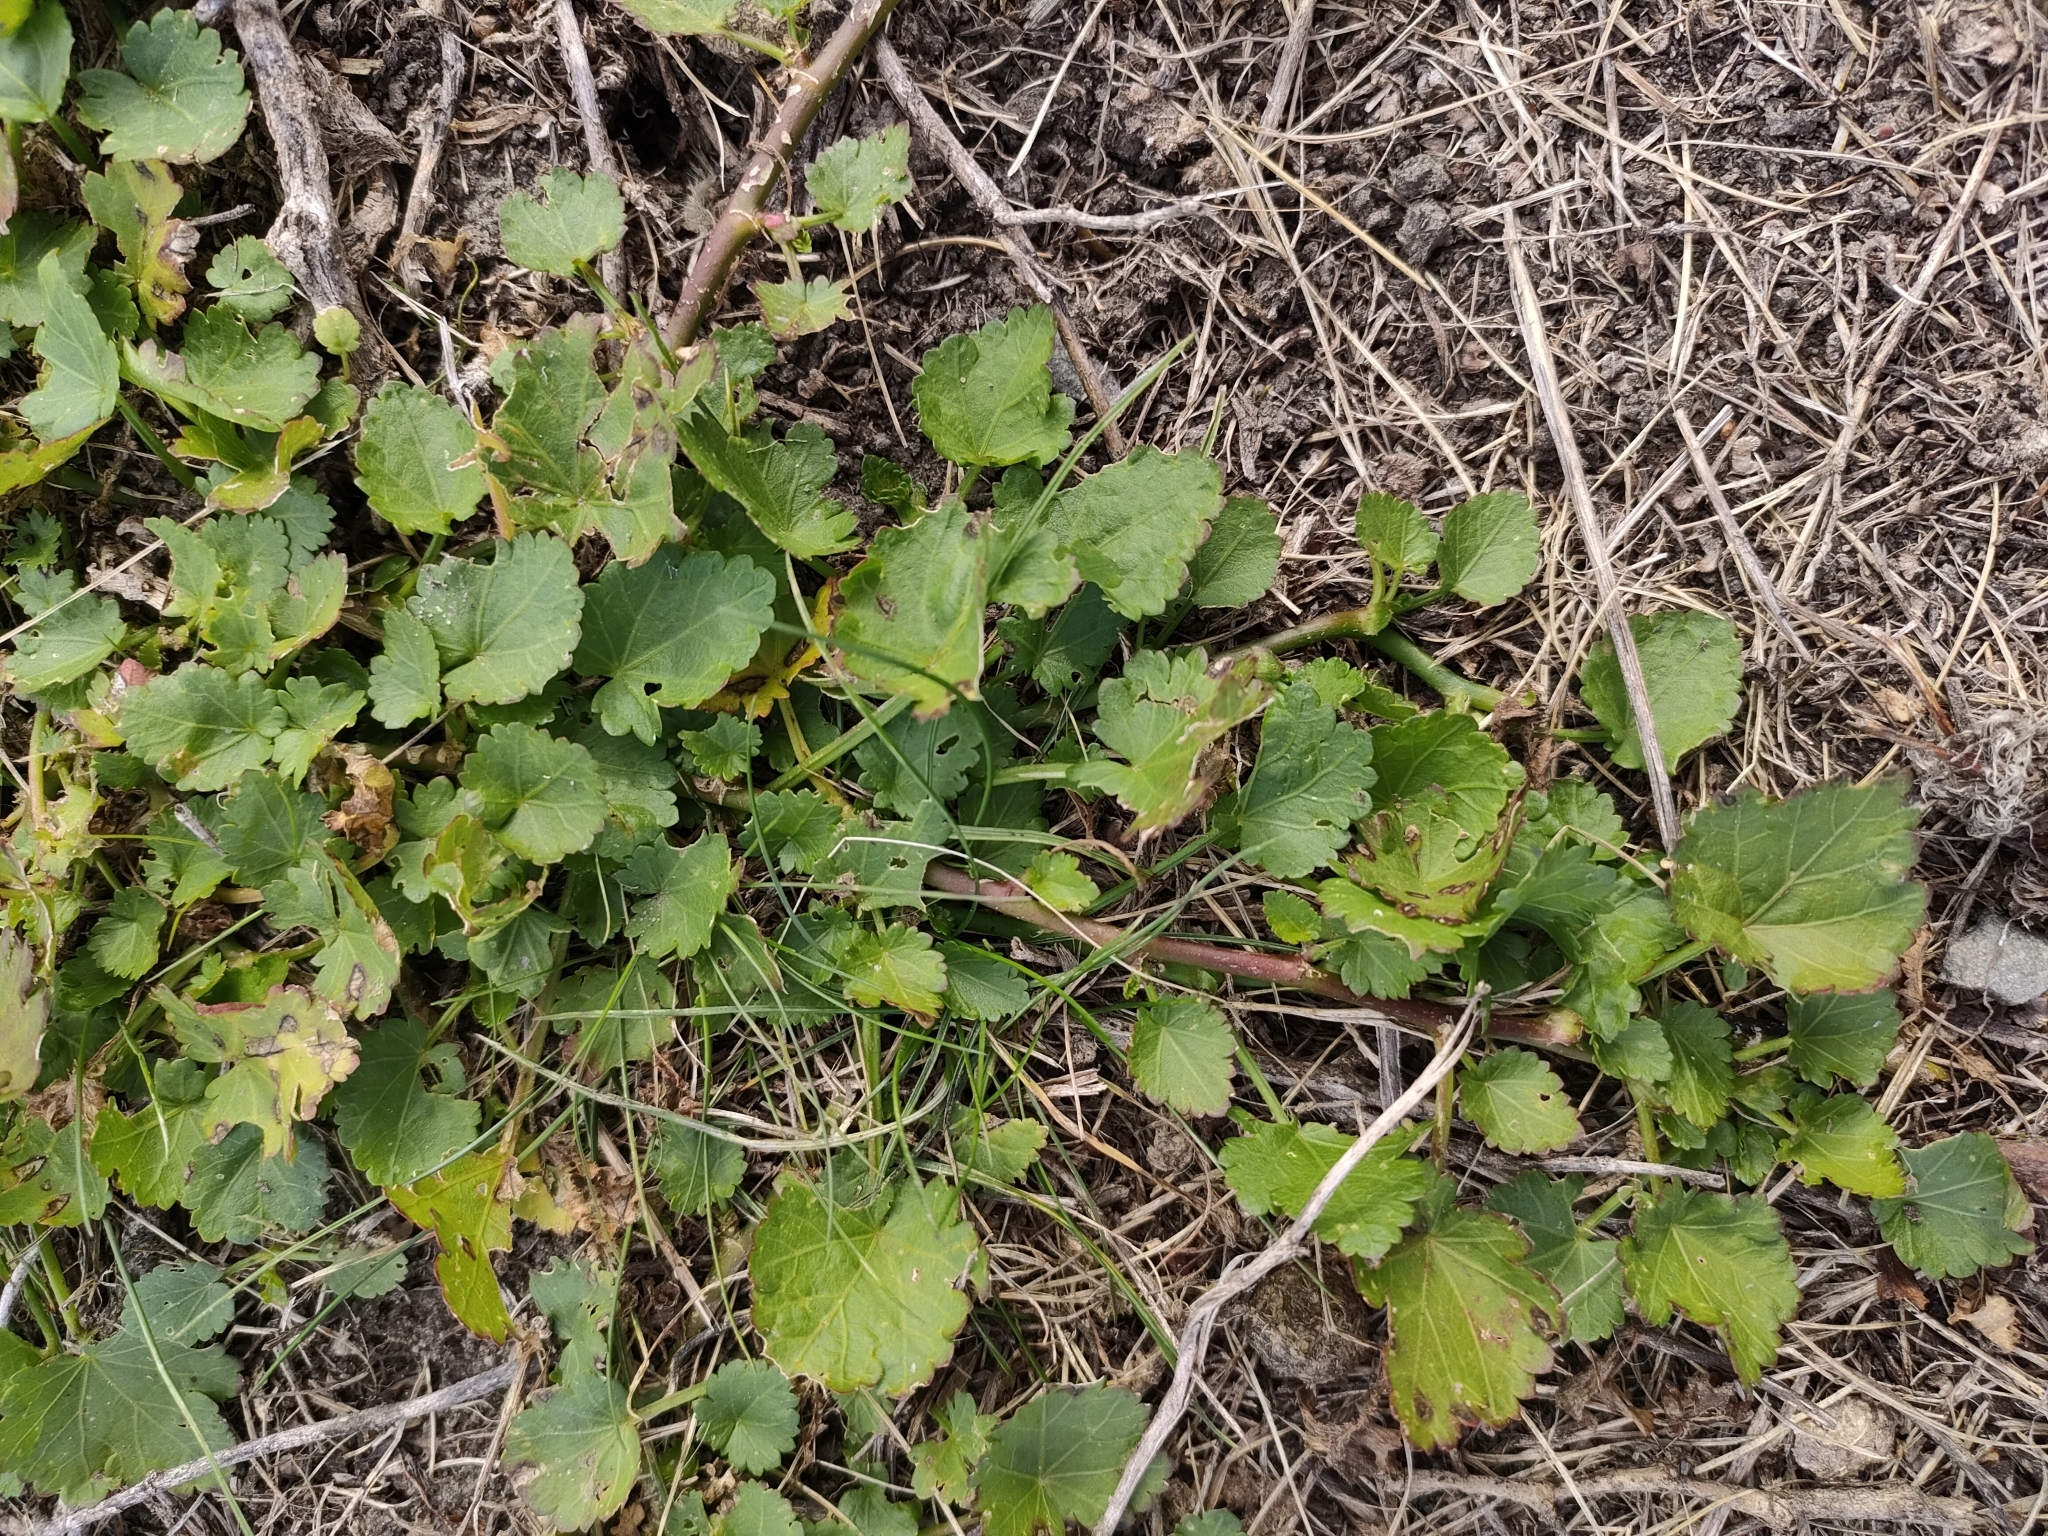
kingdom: Plantae
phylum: Tracheophyta
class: Magnoliopsida
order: Malvales
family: Malvaceae
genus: Modiola
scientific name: Modiola caroliniana
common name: Carolina bristlemallow
